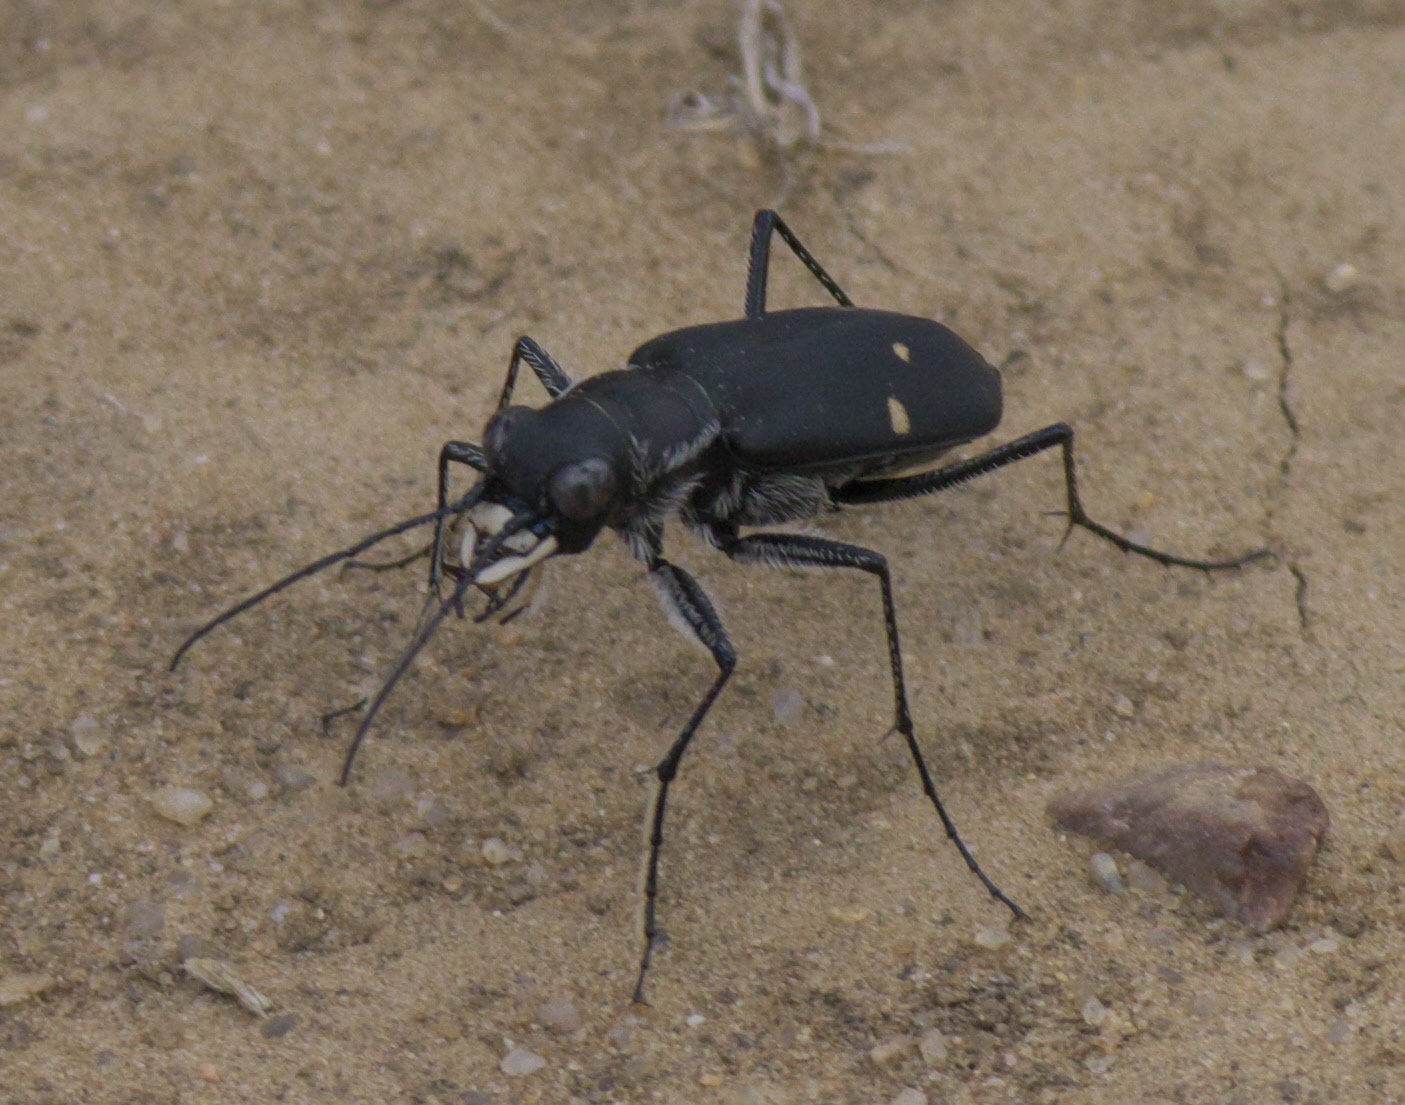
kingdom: Animalia
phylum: Arthropoda
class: Insecta
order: Coleoptera
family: Carabidae
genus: Cicindela
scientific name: Cicindela obsoleta
